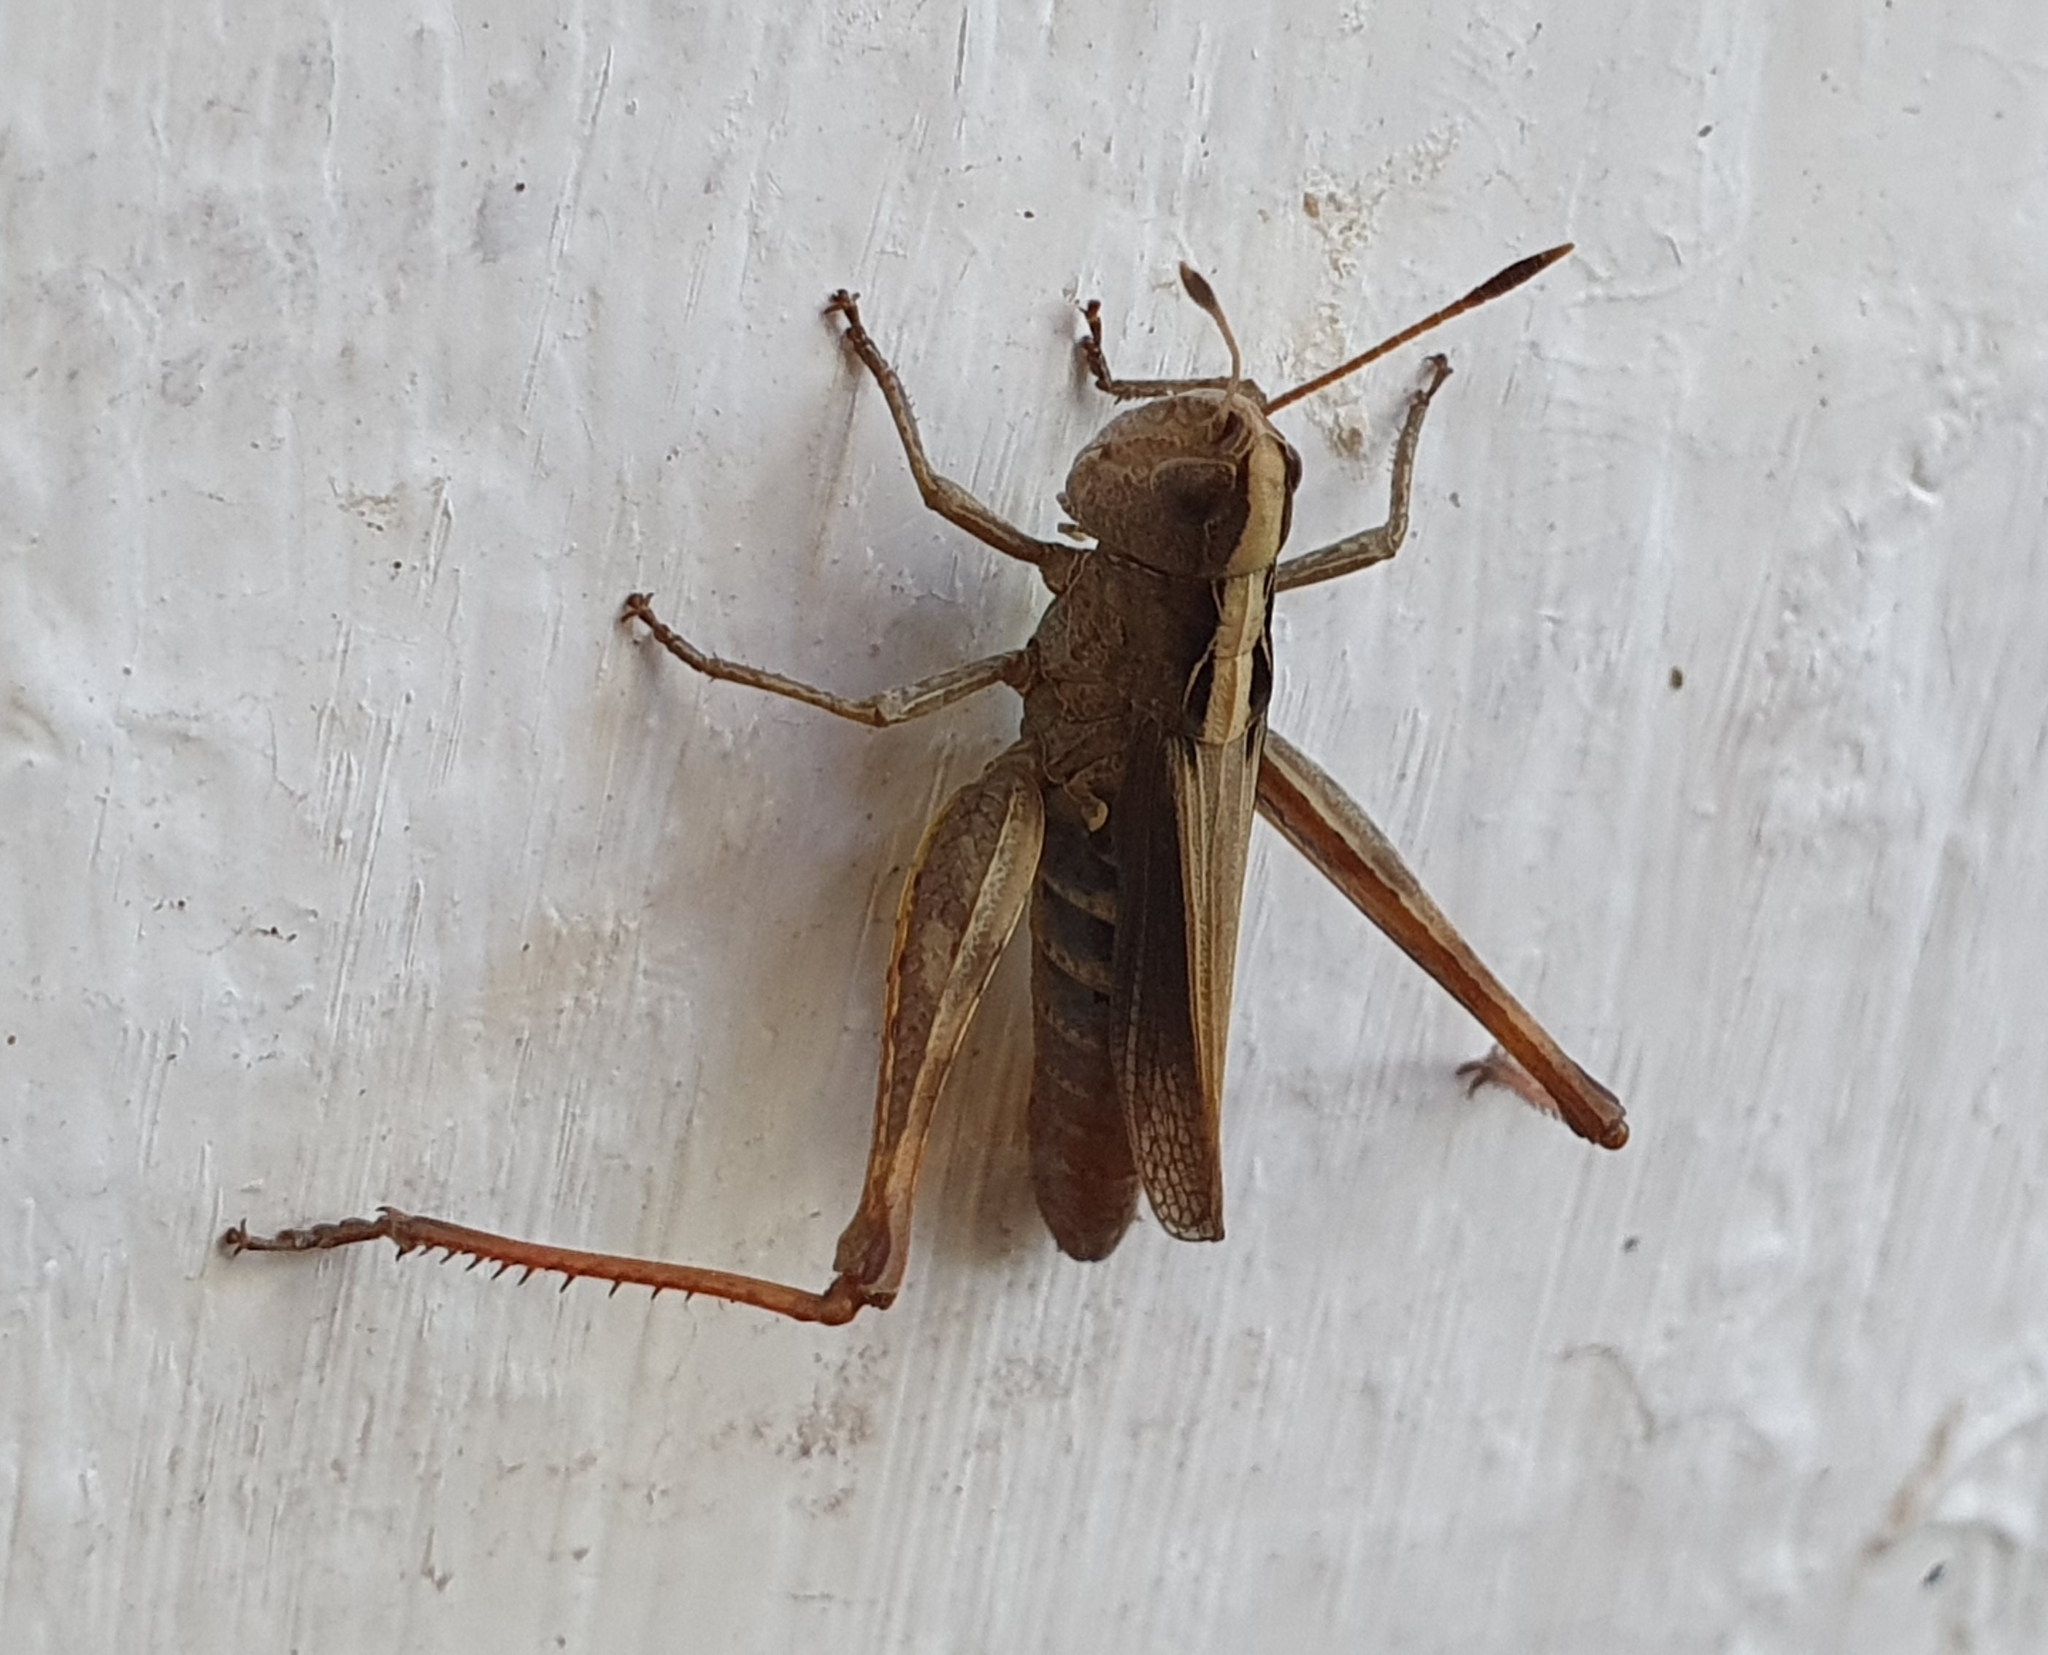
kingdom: Animalia
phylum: Arthropoda
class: Insecta
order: Orthoptera
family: Acrididae
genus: Gomphocerippus
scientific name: Gomphocerippus rufus
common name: Rufous grasshopper
